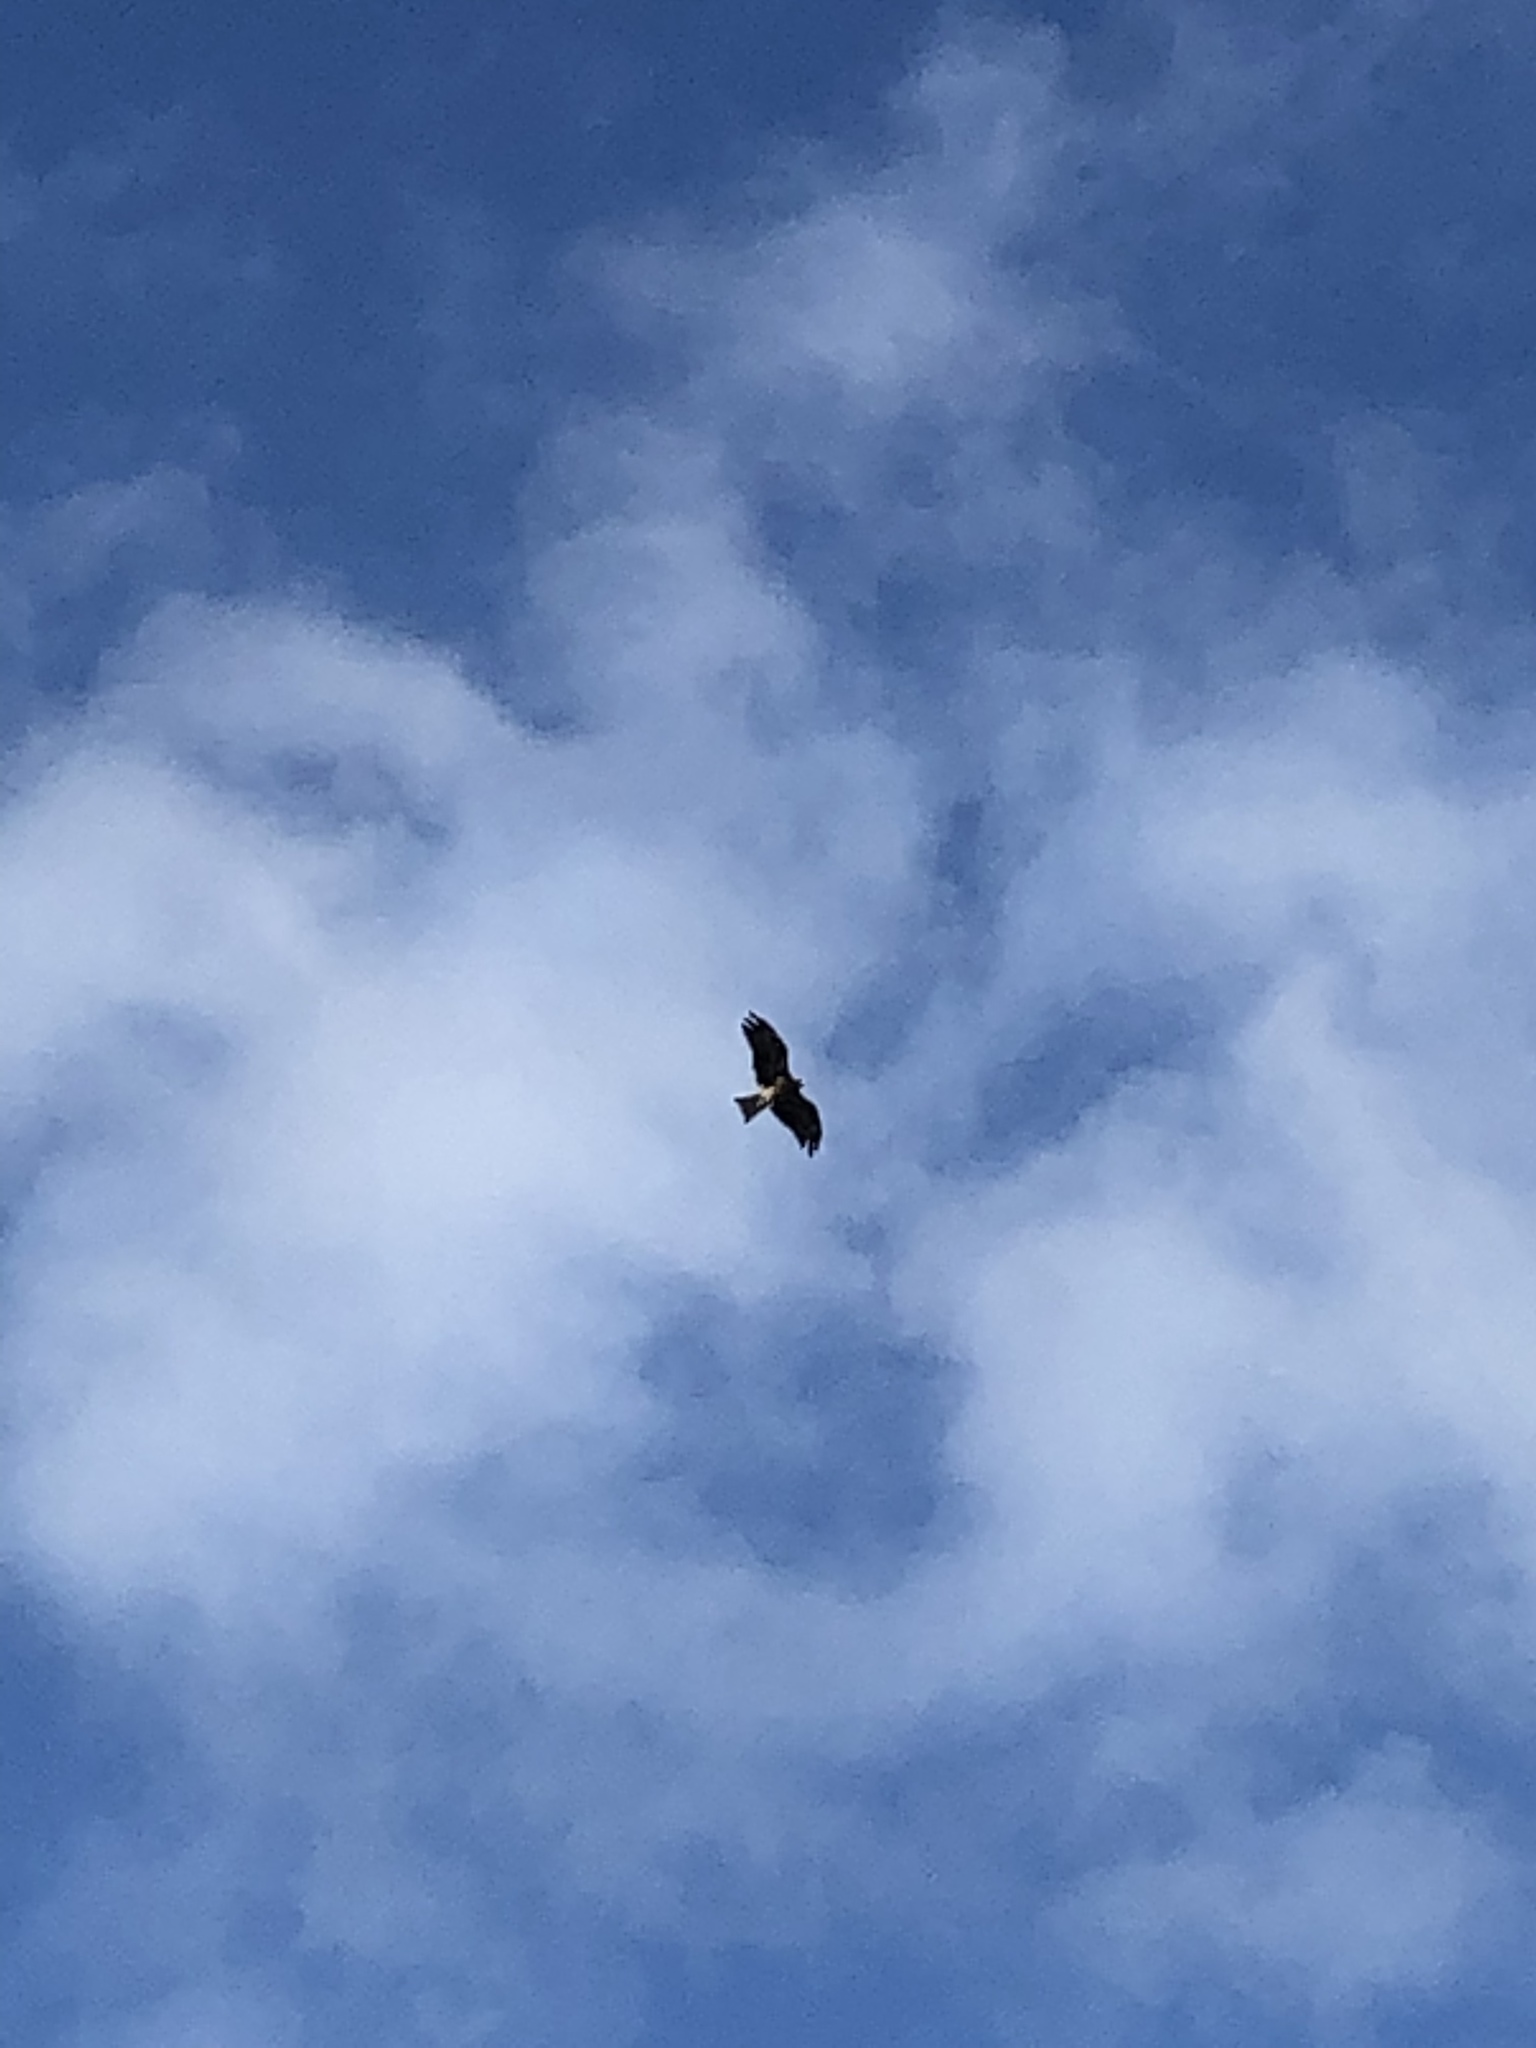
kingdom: Animalia
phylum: Chordata
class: Aves
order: Accipitriformes
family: Accipitridae
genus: Milvus
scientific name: Milvus migrans
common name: Black kite
